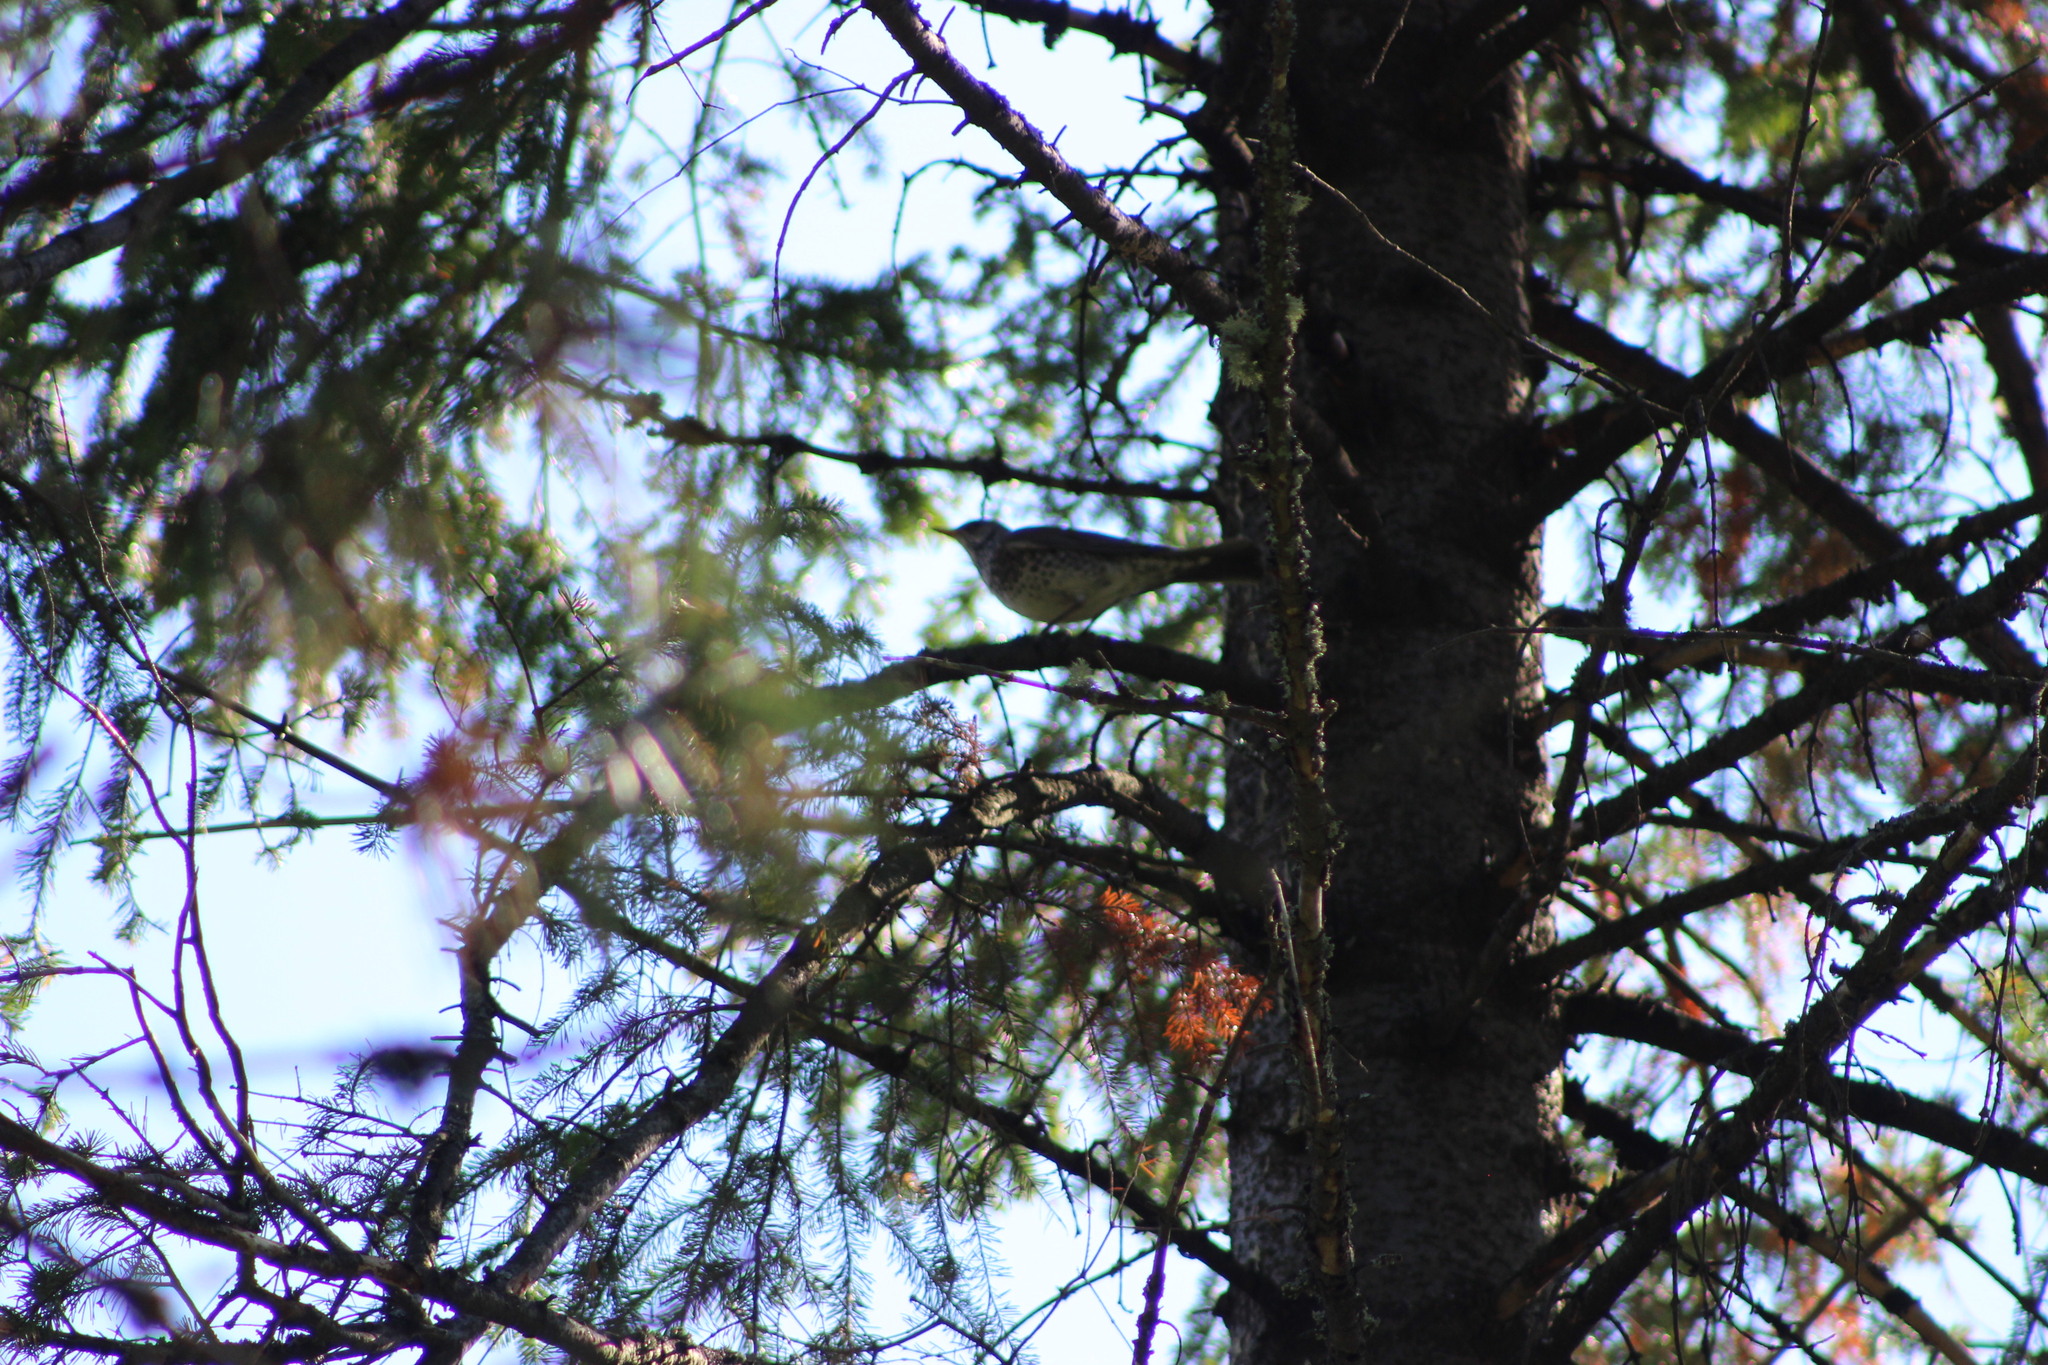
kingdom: Animalia
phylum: Chordata
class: Aves
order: Passeriformes
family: Turdidae
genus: Turdus
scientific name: Turdus pilaris
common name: Fieldfare
